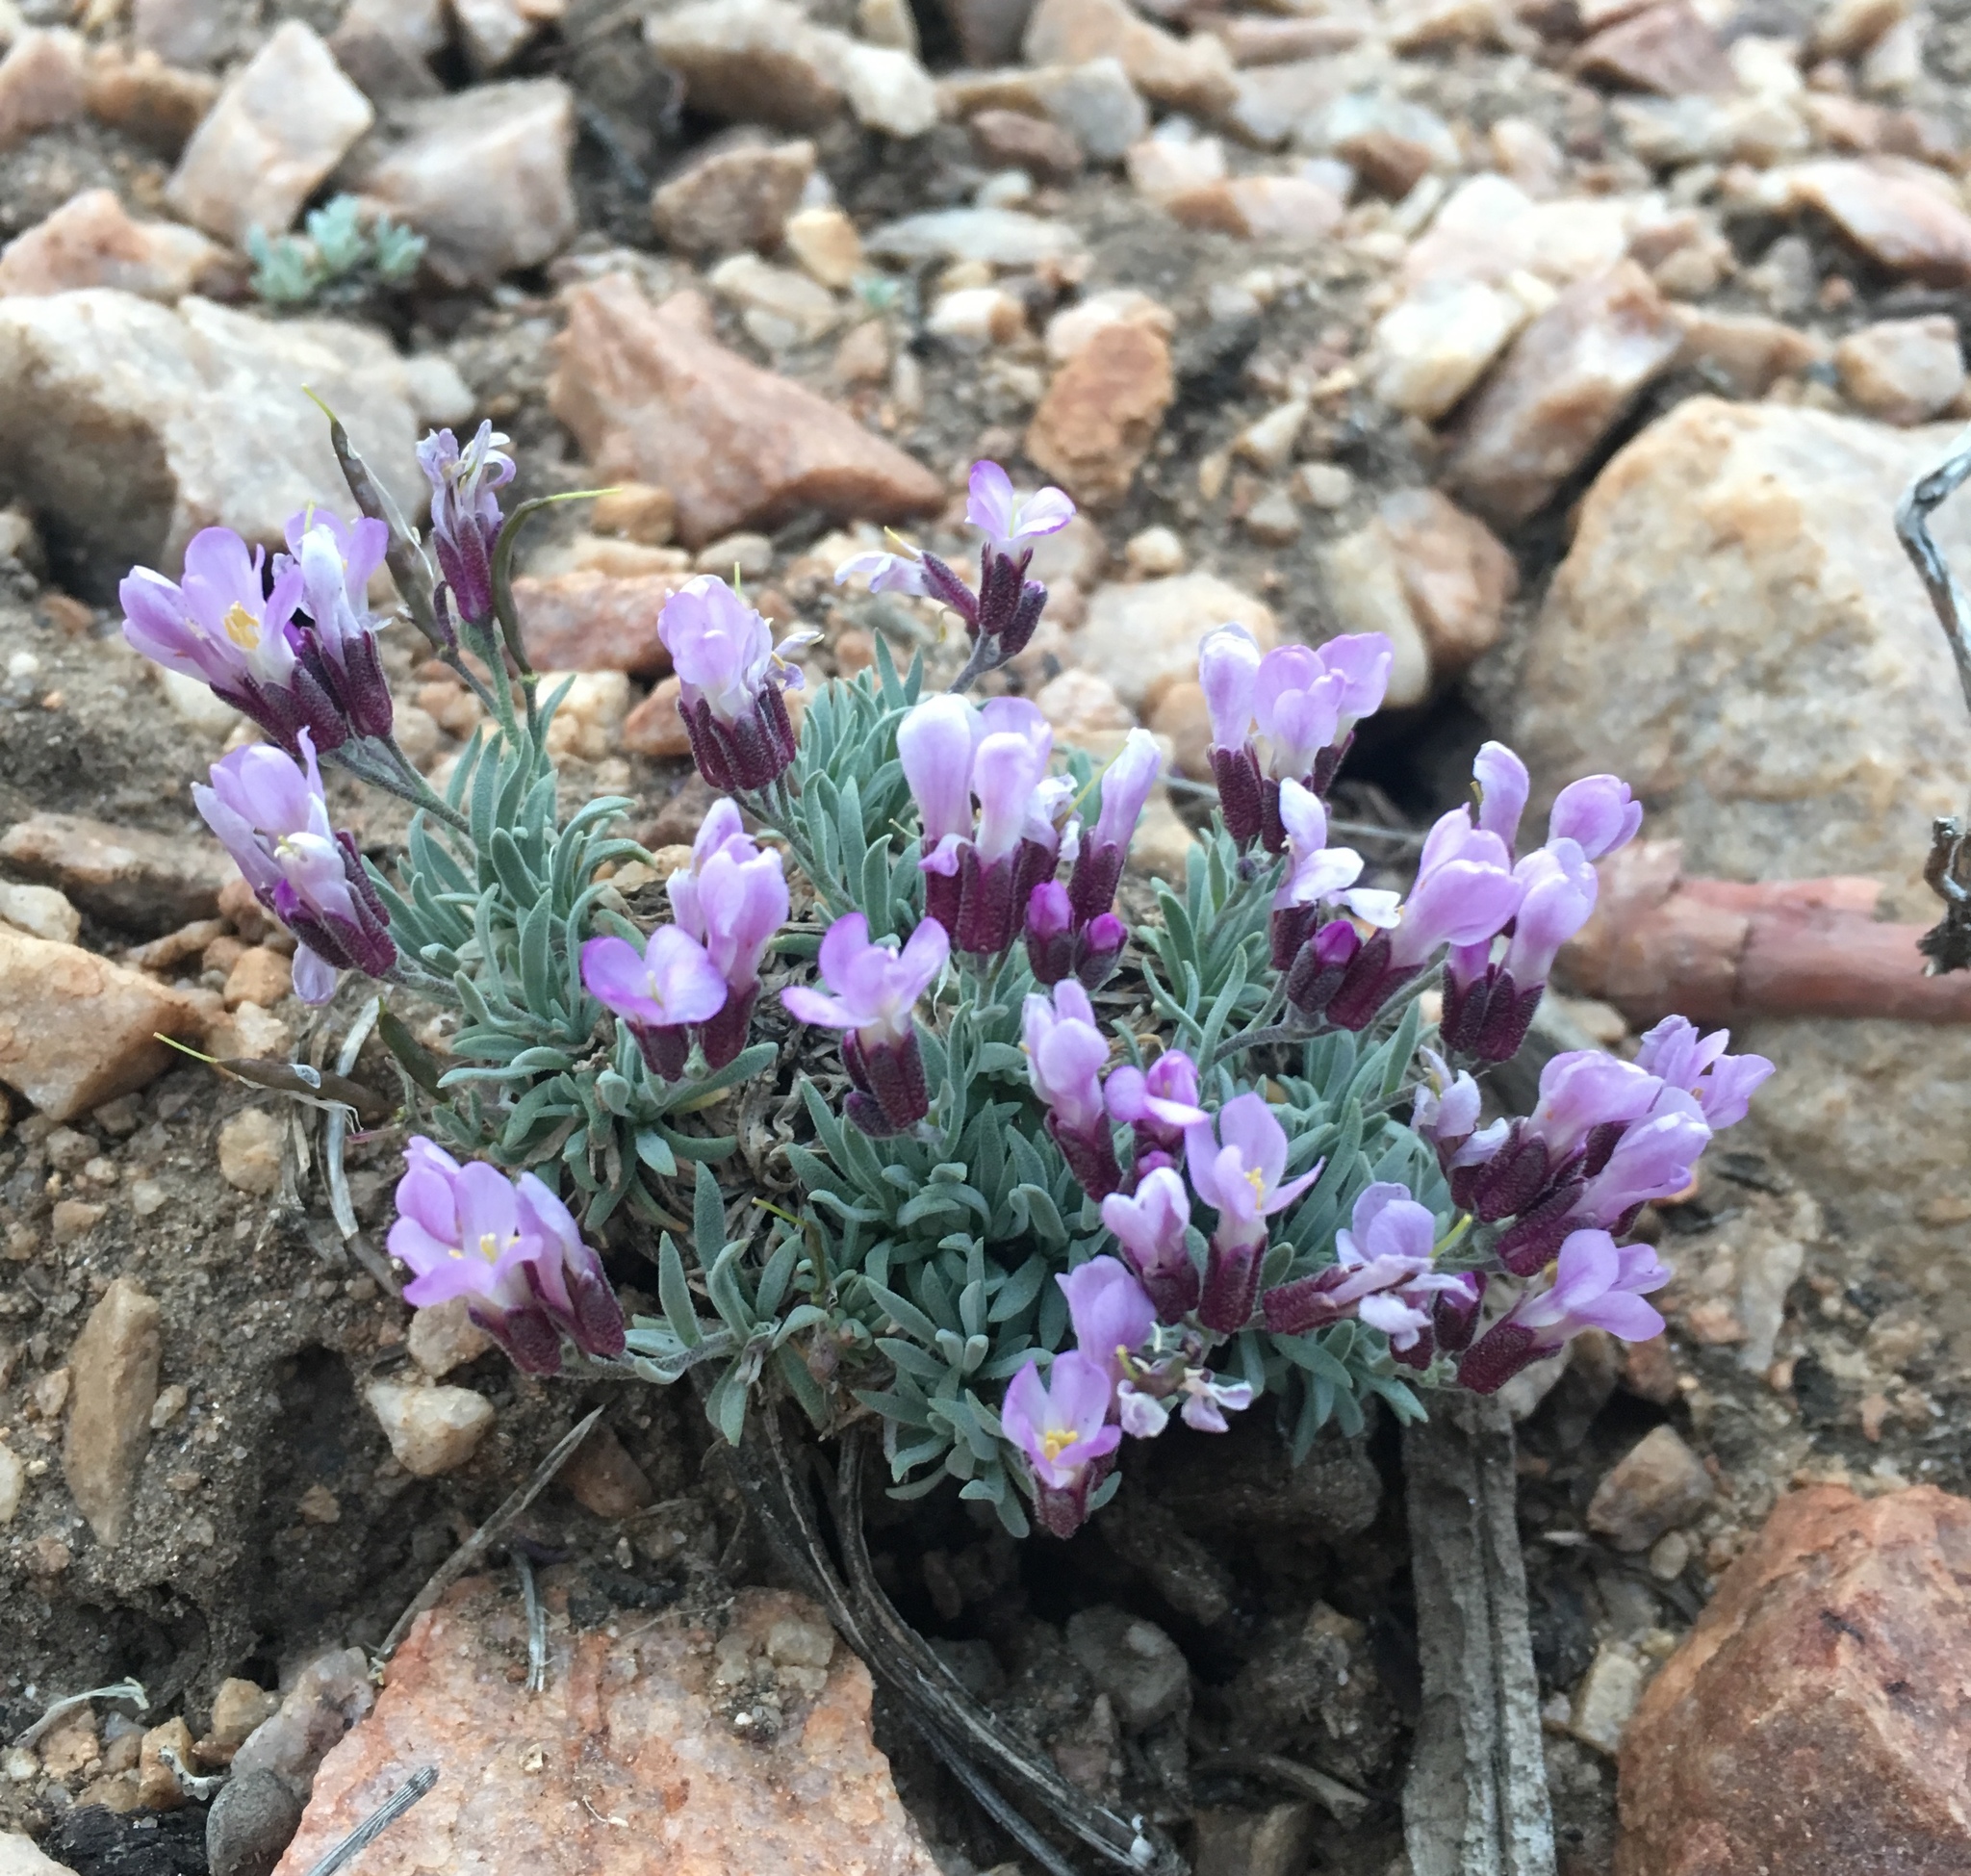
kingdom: Plantae
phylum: Tracheophyta
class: Magnoliopsida
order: Brassicales
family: Brassicaceae
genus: Boechera
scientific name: Boechera parishii
